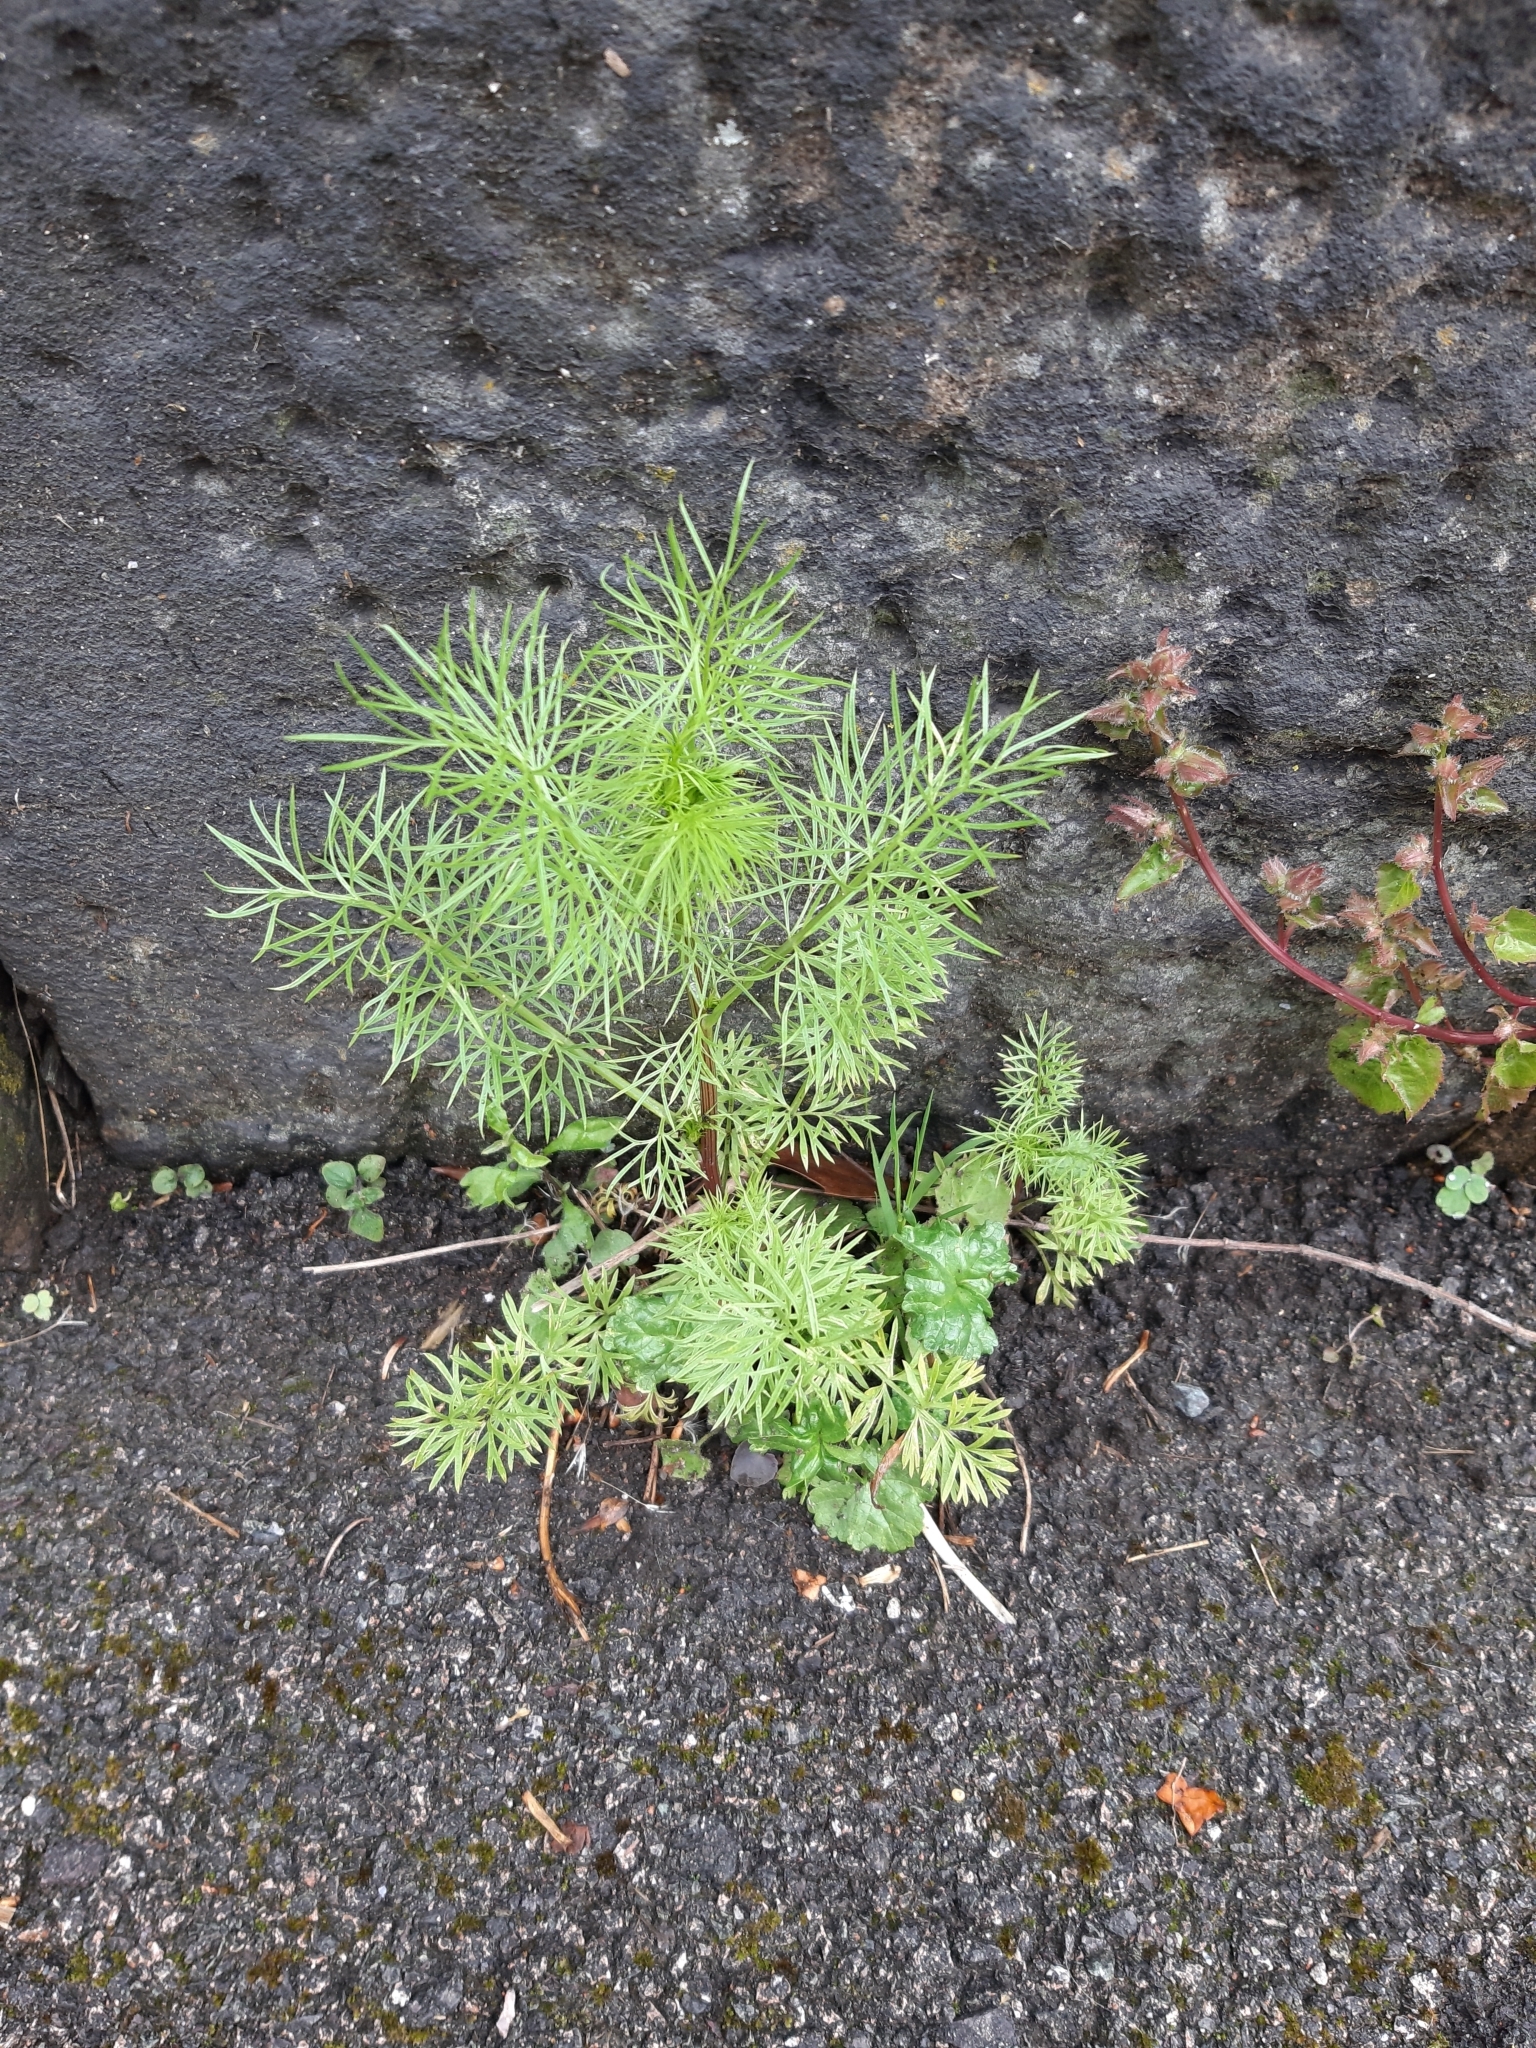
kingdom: Plantae
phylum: Tracheophyta
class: Magnoliopsida
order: Ranunculales
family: Ranunculaceae
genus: Nigella
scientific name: Nigella damascena
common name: Love-in-a-mist
